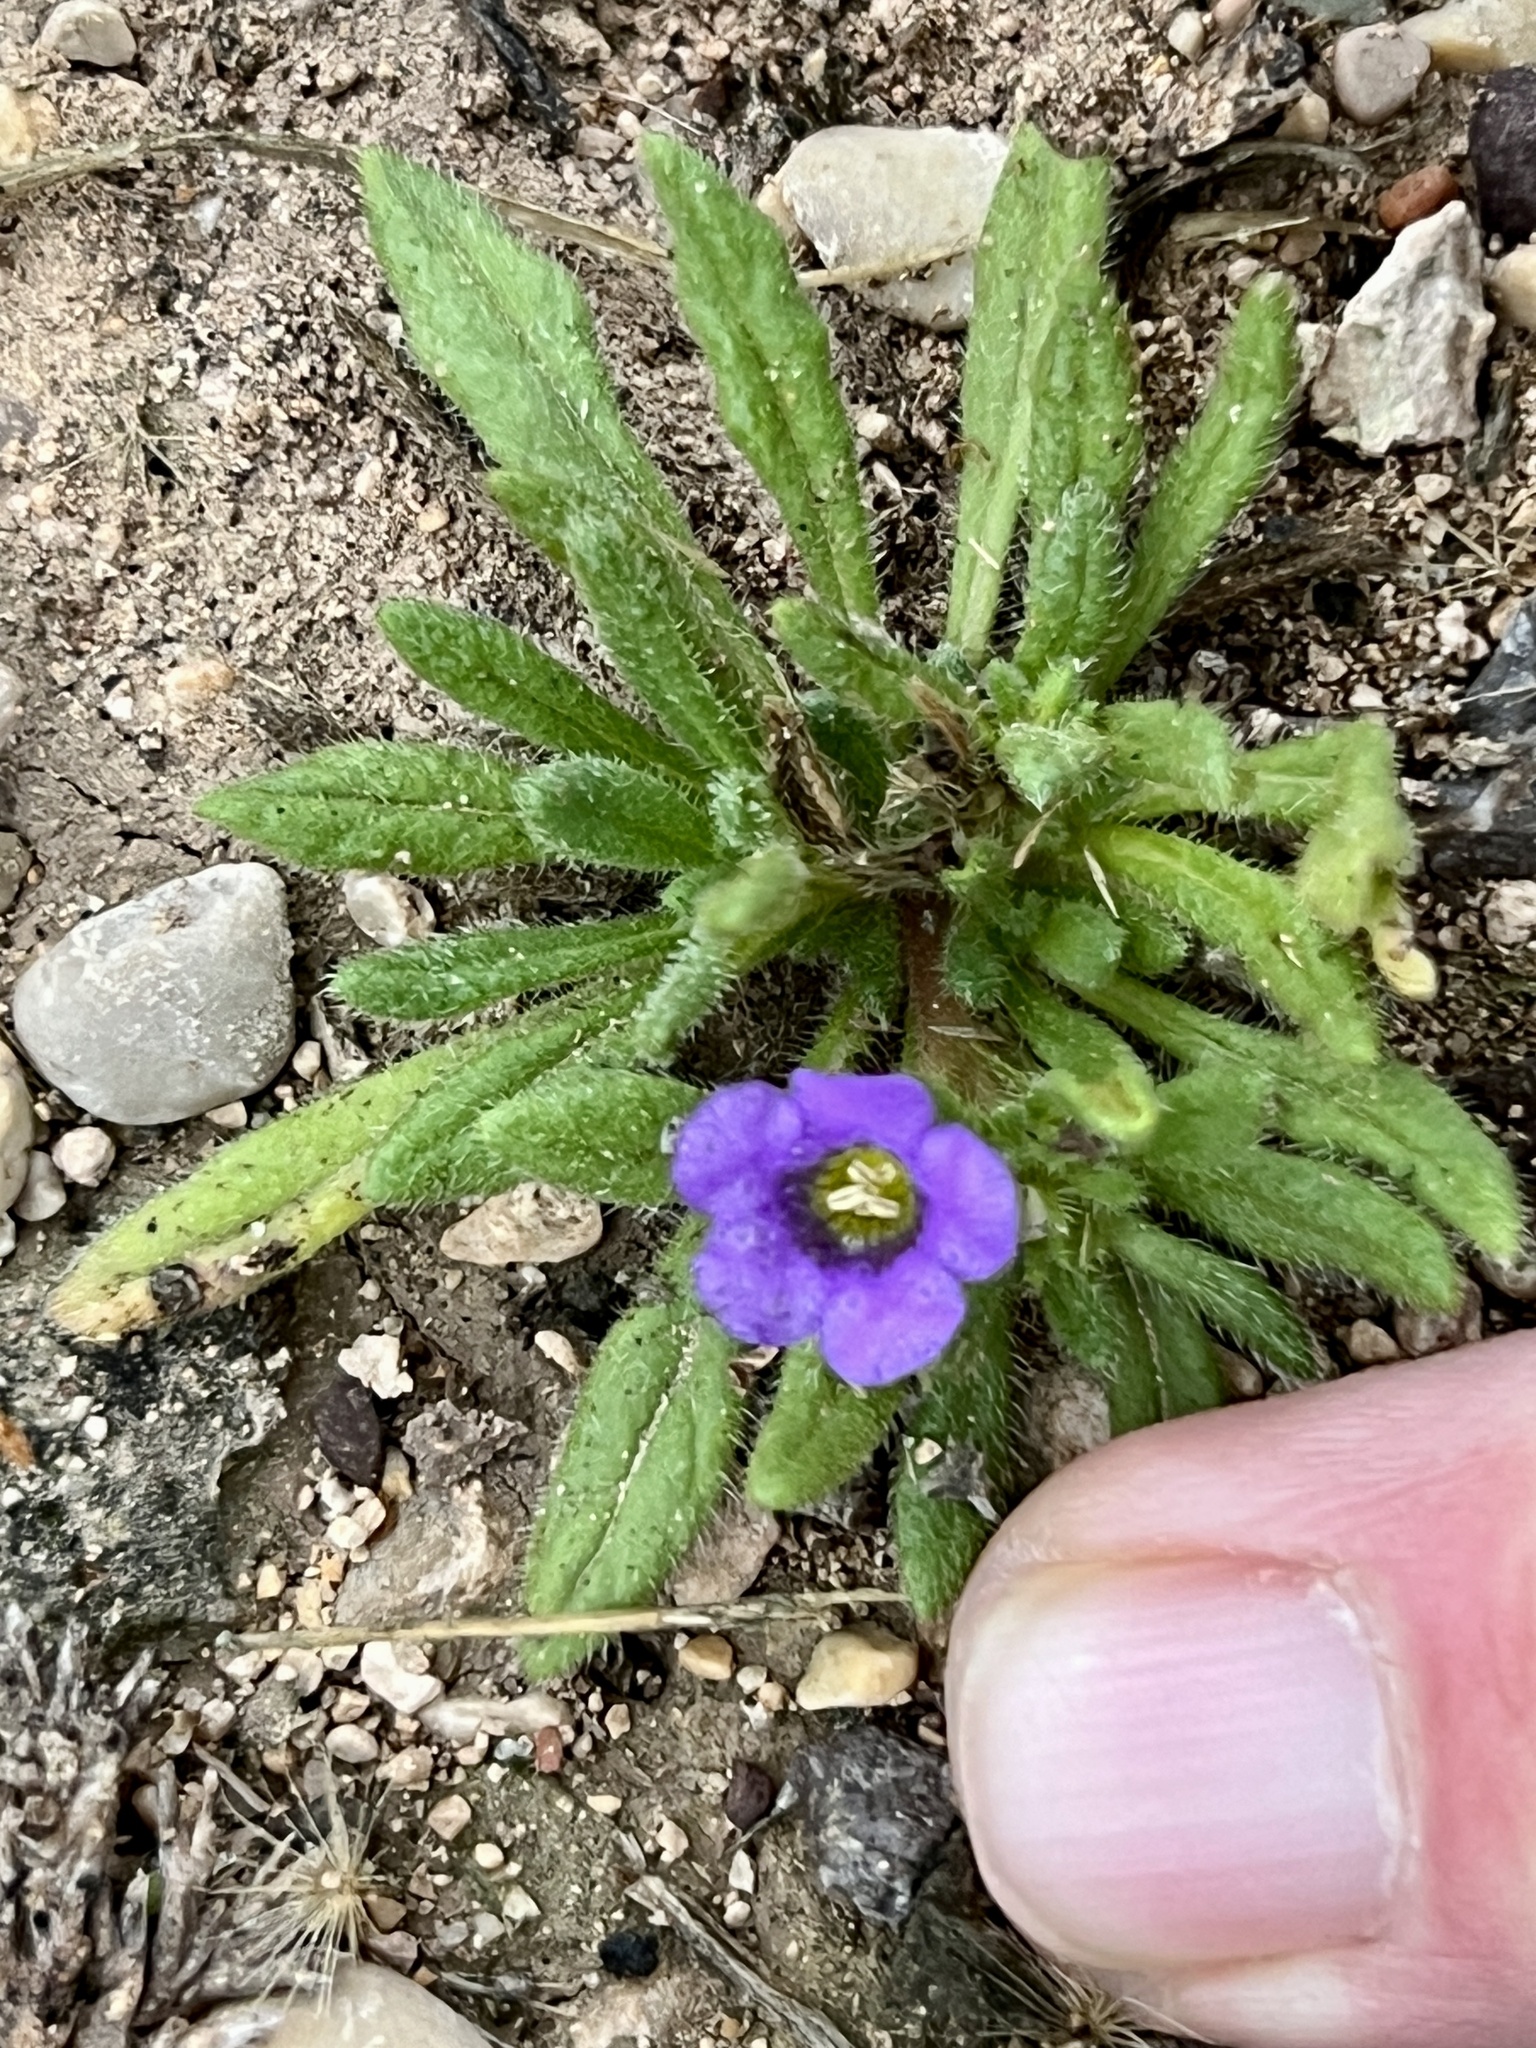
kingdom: Plantae
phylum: Tracheophyta
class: Magnoliopsida
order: Boraginales
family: Namaceae
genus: Nama
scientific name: Nama hispida
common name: Bristly nama
